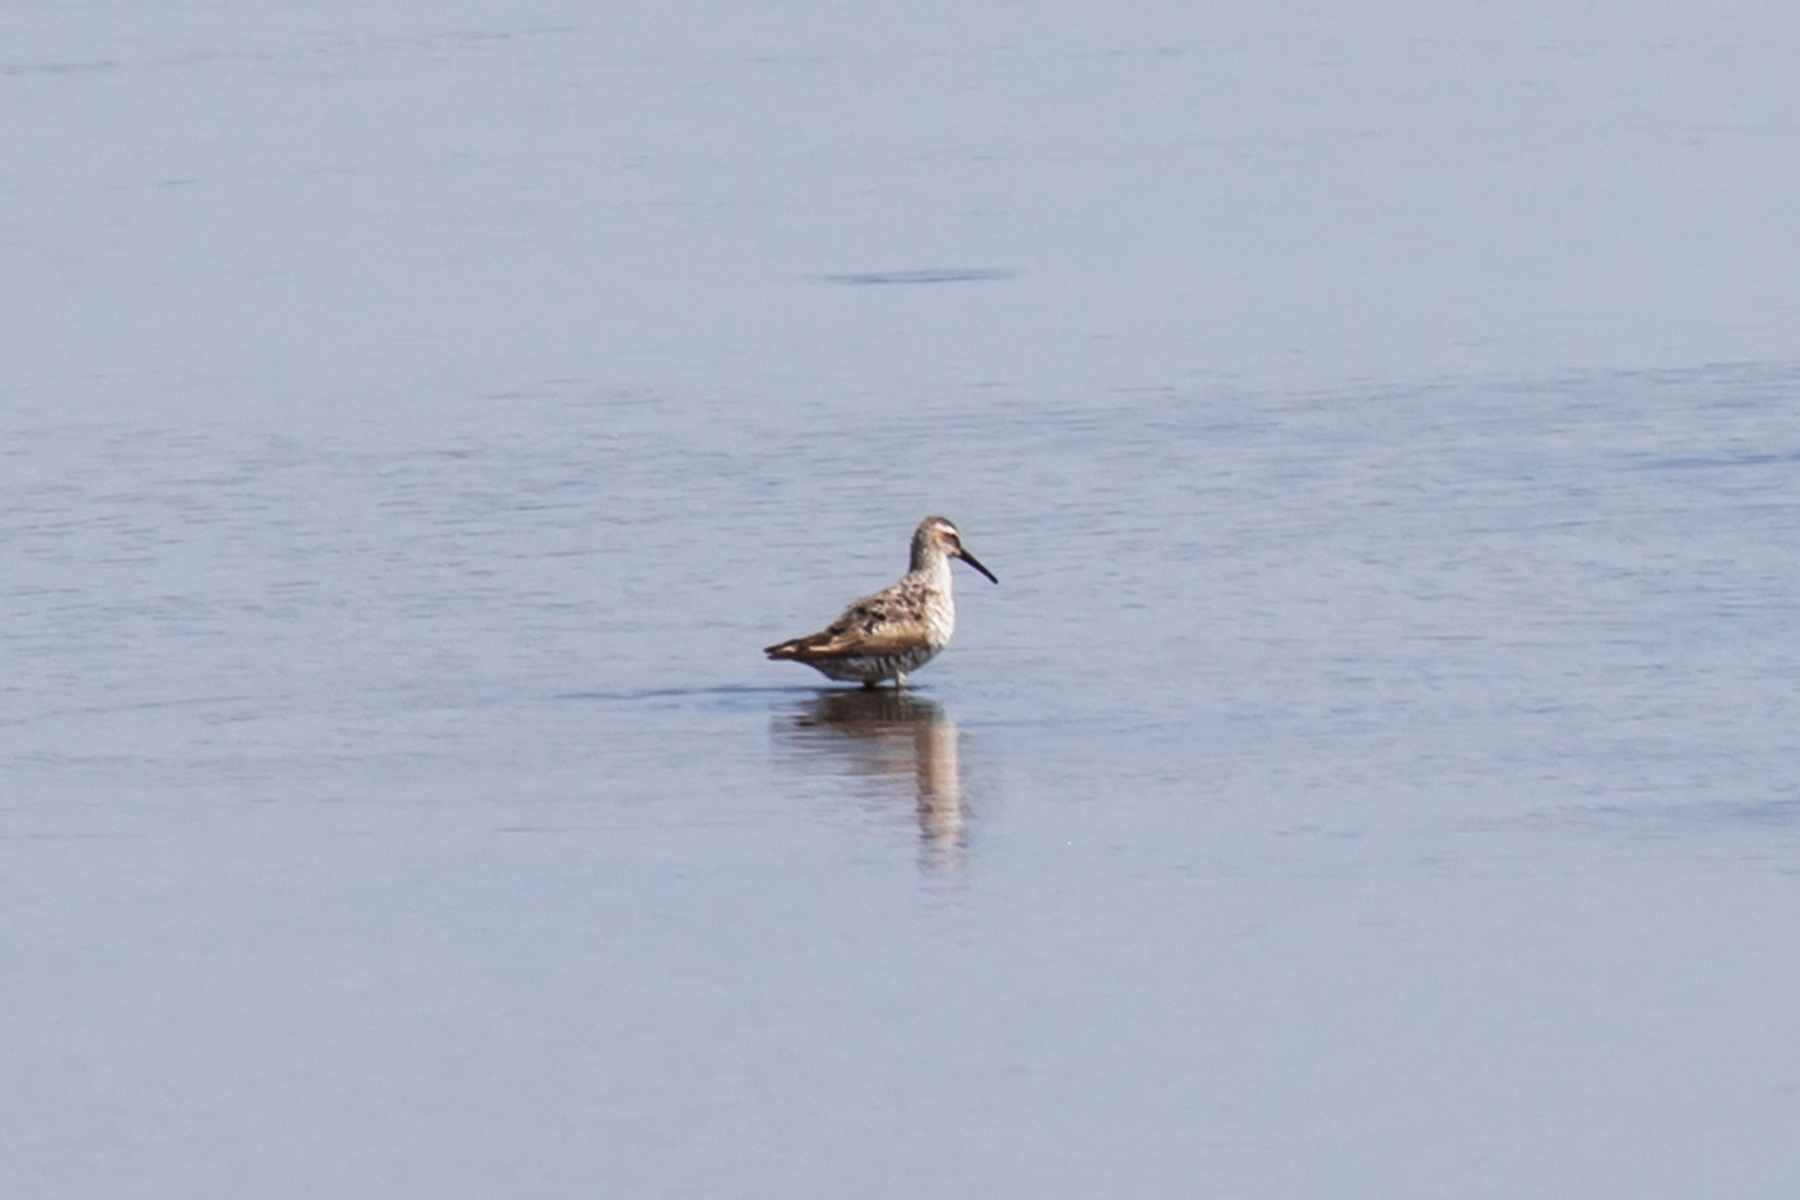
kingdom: Animalia
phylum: Chordata
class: Aves
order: Charadriiformes
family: Scolopacidae
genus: Calidris
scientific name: Calidris himantopus
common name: Stilt sandpiper
